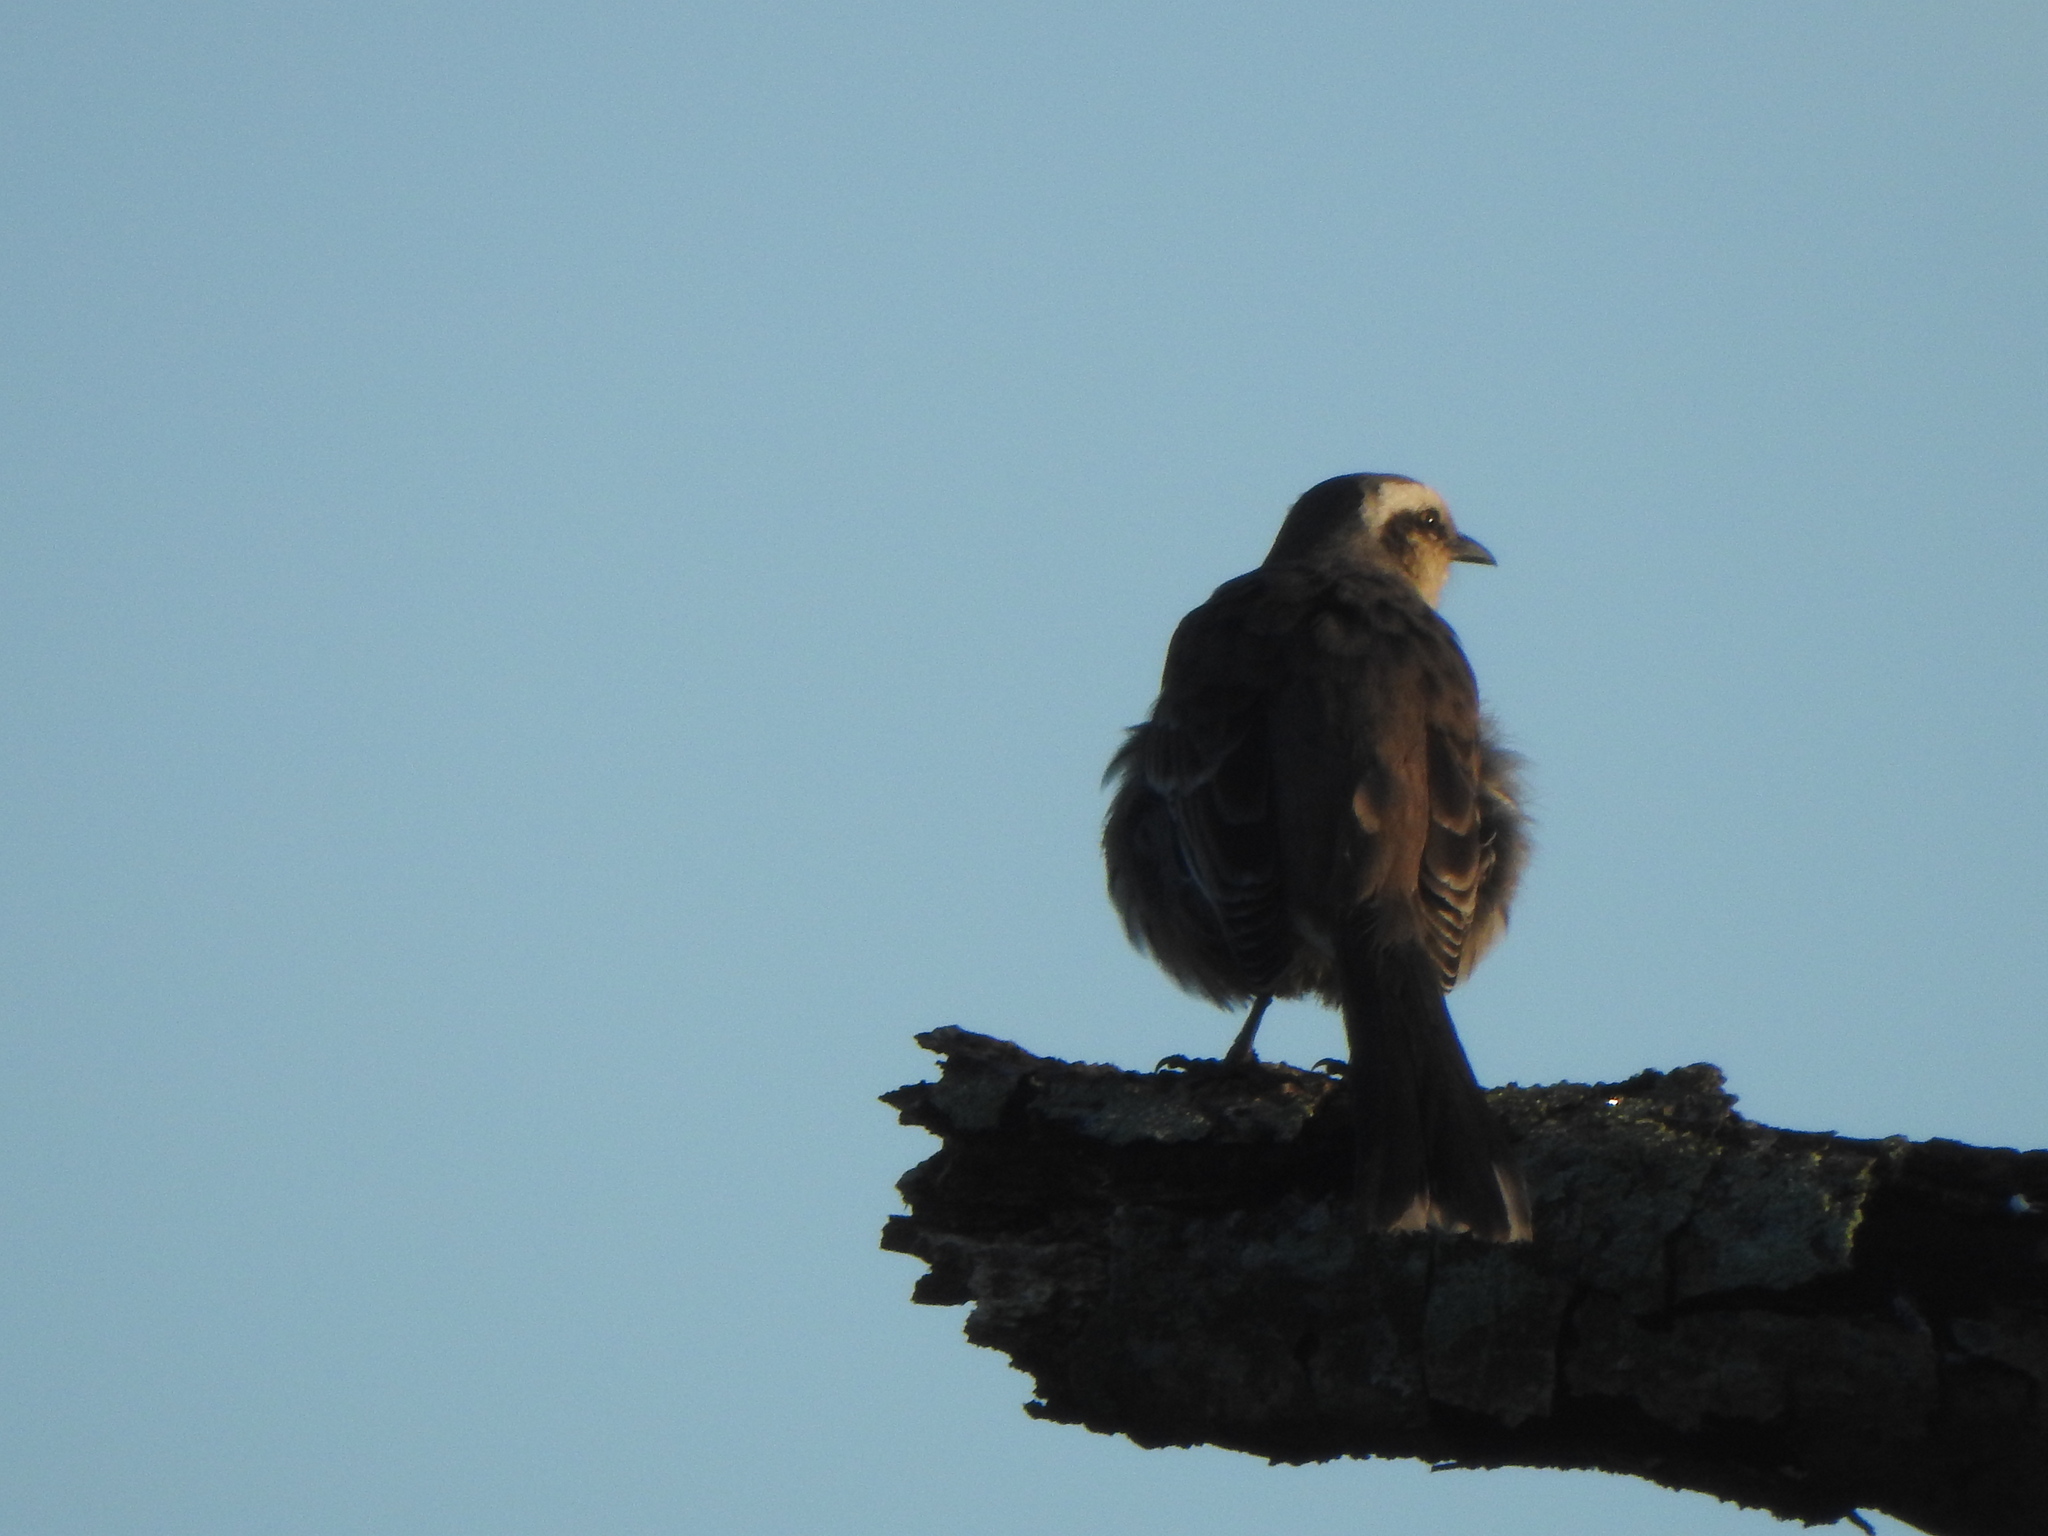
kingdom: Animalia
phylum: Chordata
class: Aves
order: Passeriformes
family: Mimidae
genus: Mimus
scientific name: Mimus saturninus
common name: Chalk-browed mockingbird
